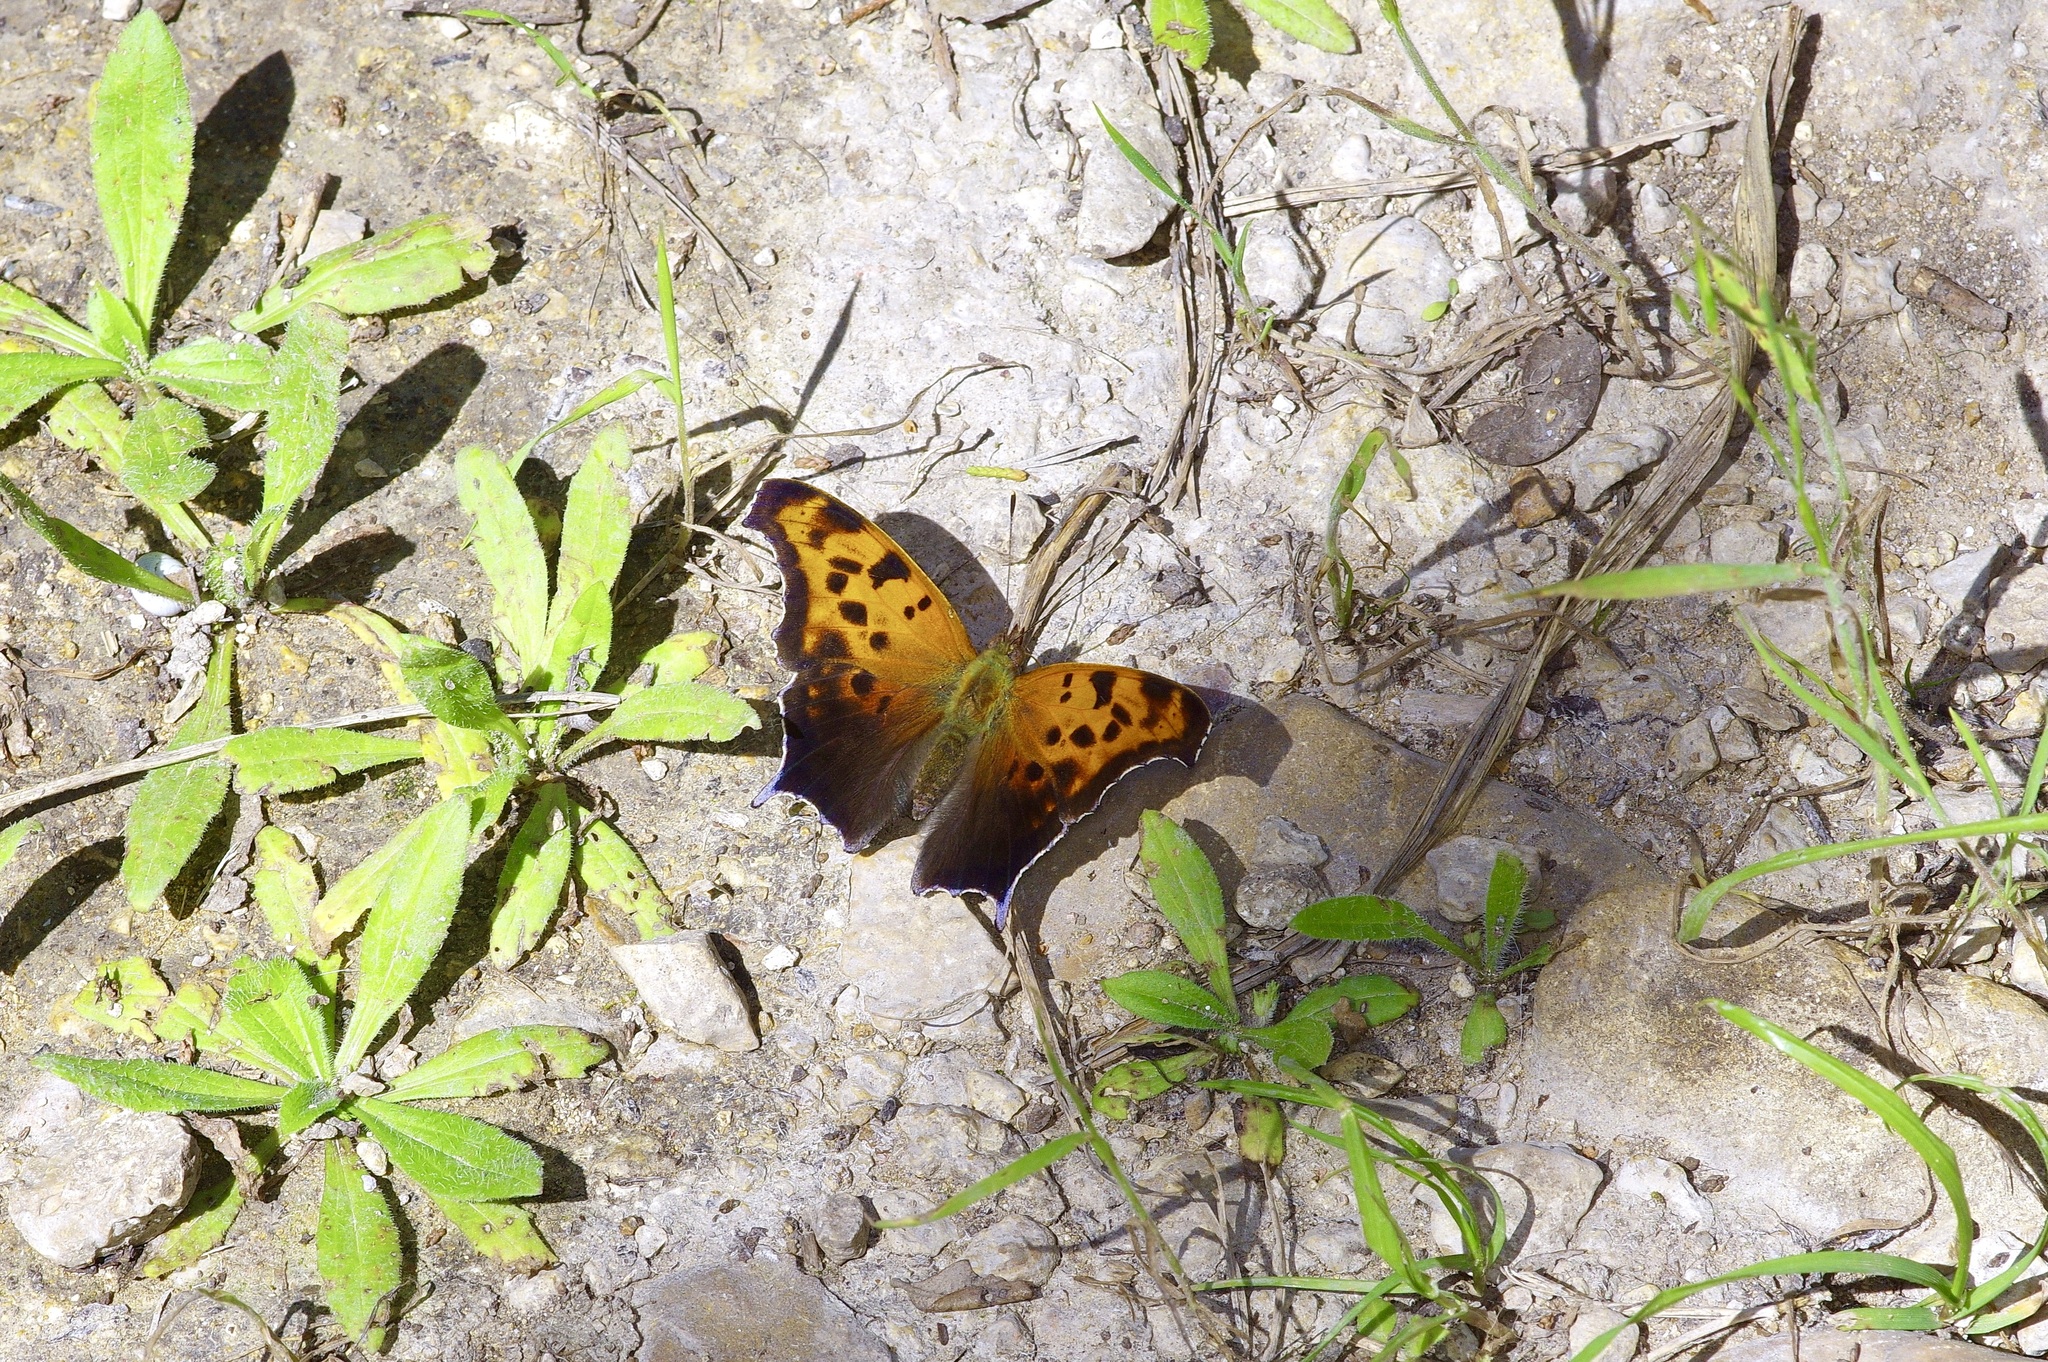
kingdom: Animalia
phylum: Arthropoda
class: Insecta
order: Lepidoptera
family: Nymphalidae
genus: Polygonia
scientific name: Polygonia interrogationis
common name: Question mark
